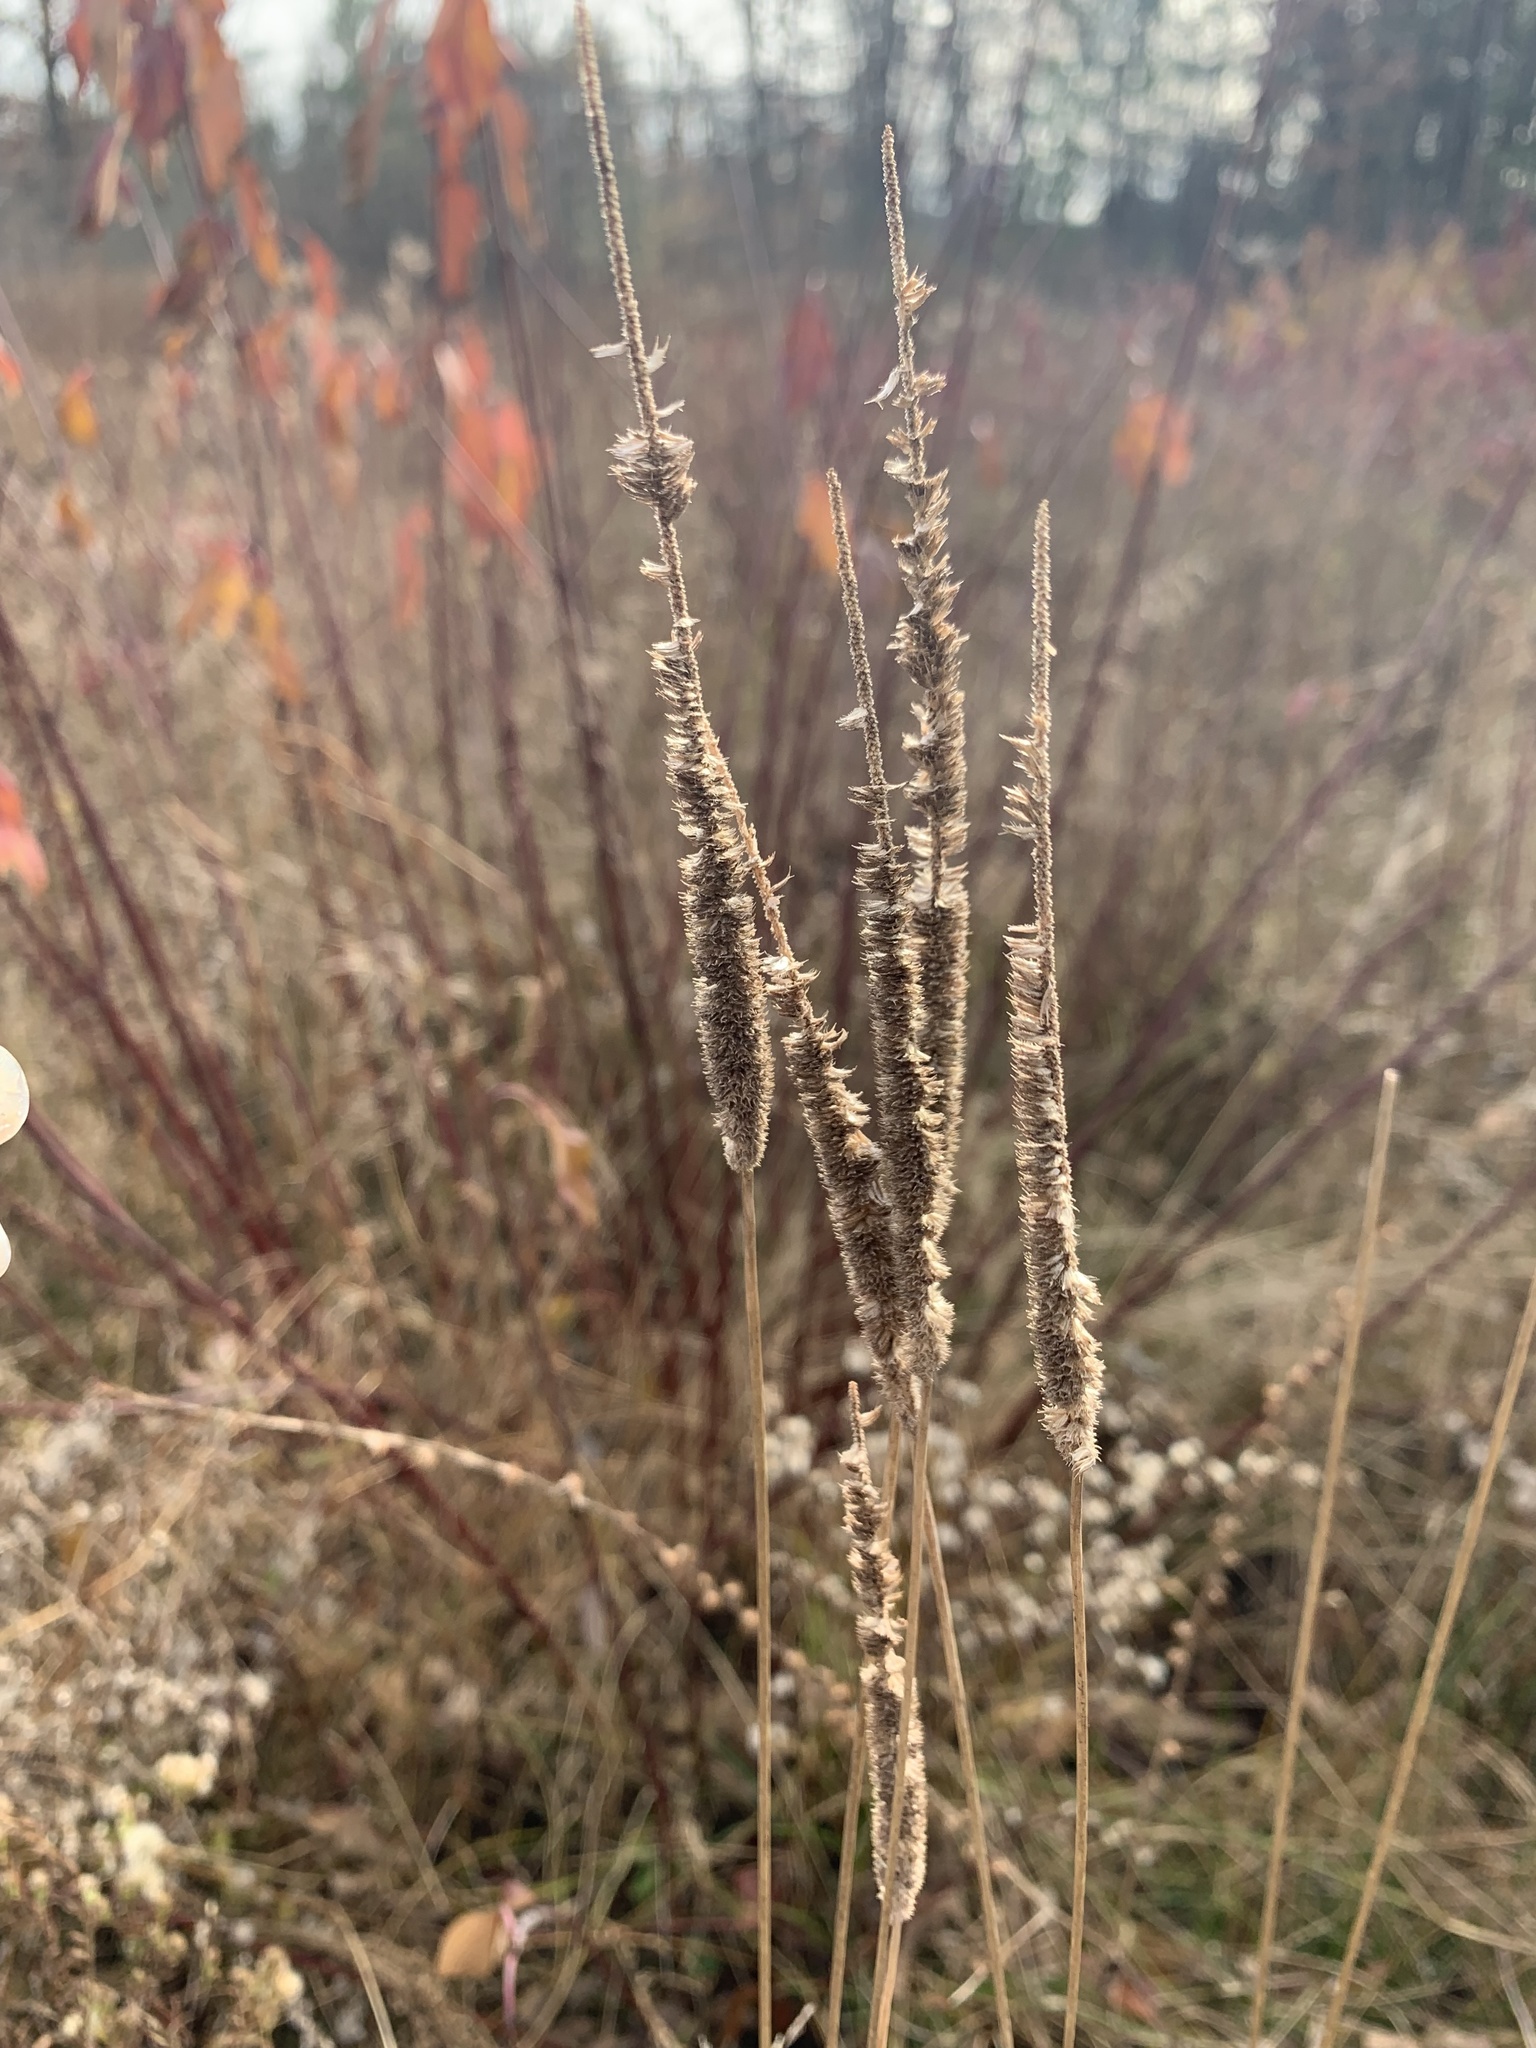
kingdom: Plantae
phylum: Tracheophyta
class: Liliopsida
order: Poales
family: Poaceae
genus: Phleum
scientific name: Phleum pratense
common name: Timothy grass
